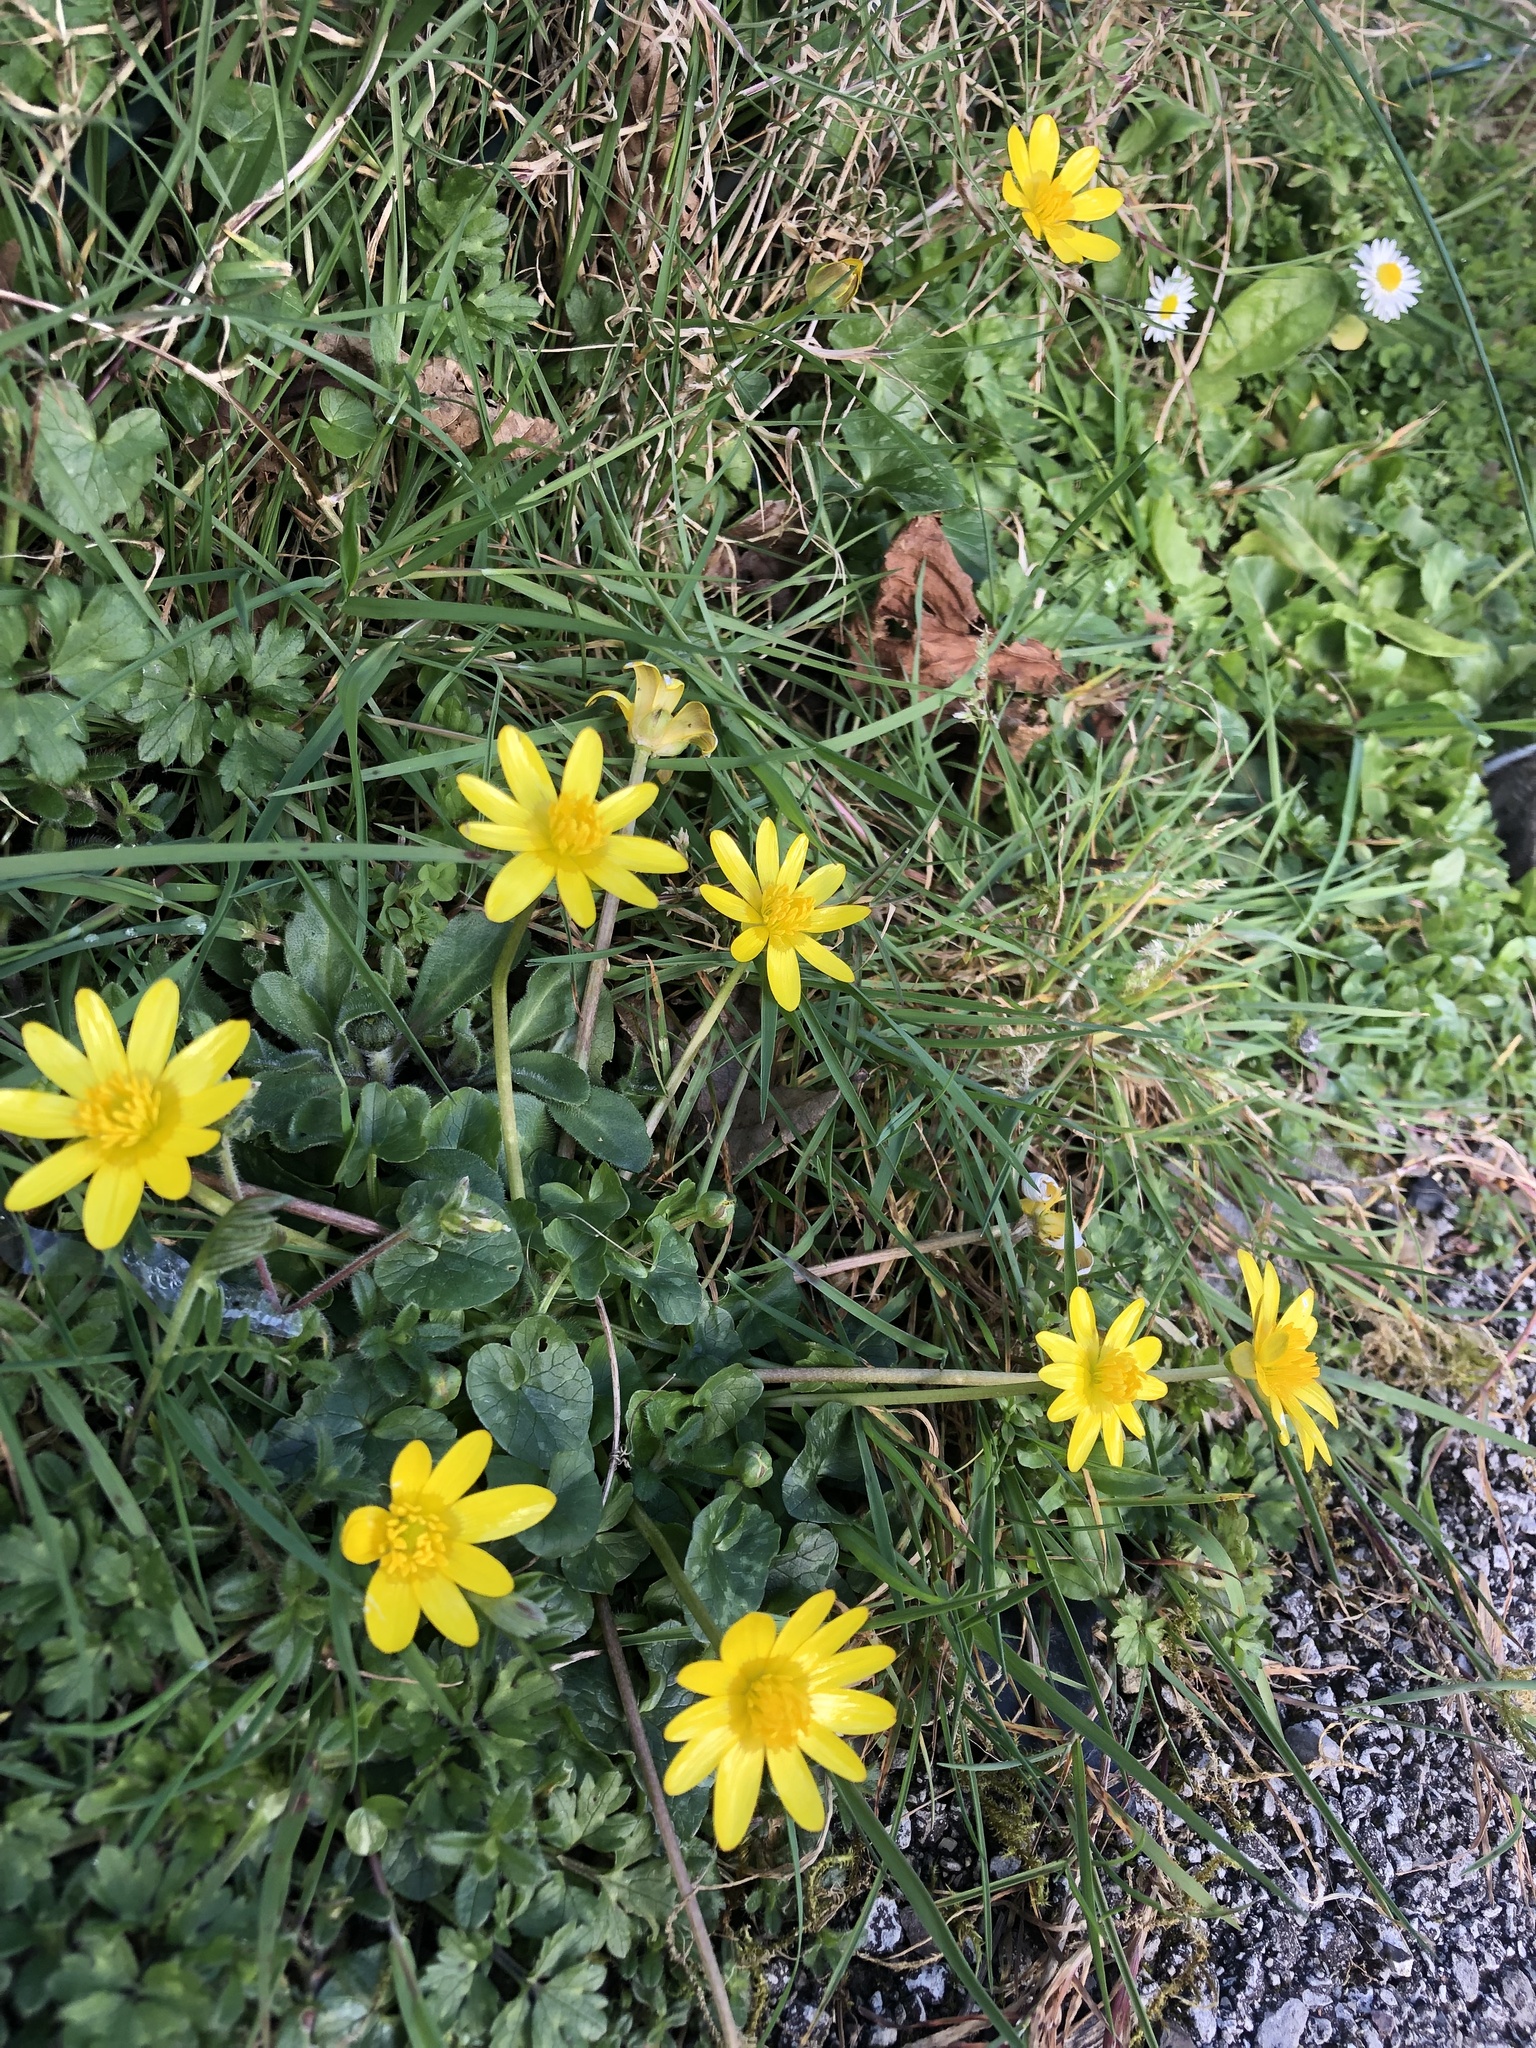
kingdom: Plantae
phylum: Tracheophyta
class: Magnoliopsida
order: Ranunculales
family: Ranunculaceae
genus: Ficaria
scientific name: Ficaria verna
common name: Lesser celandine
